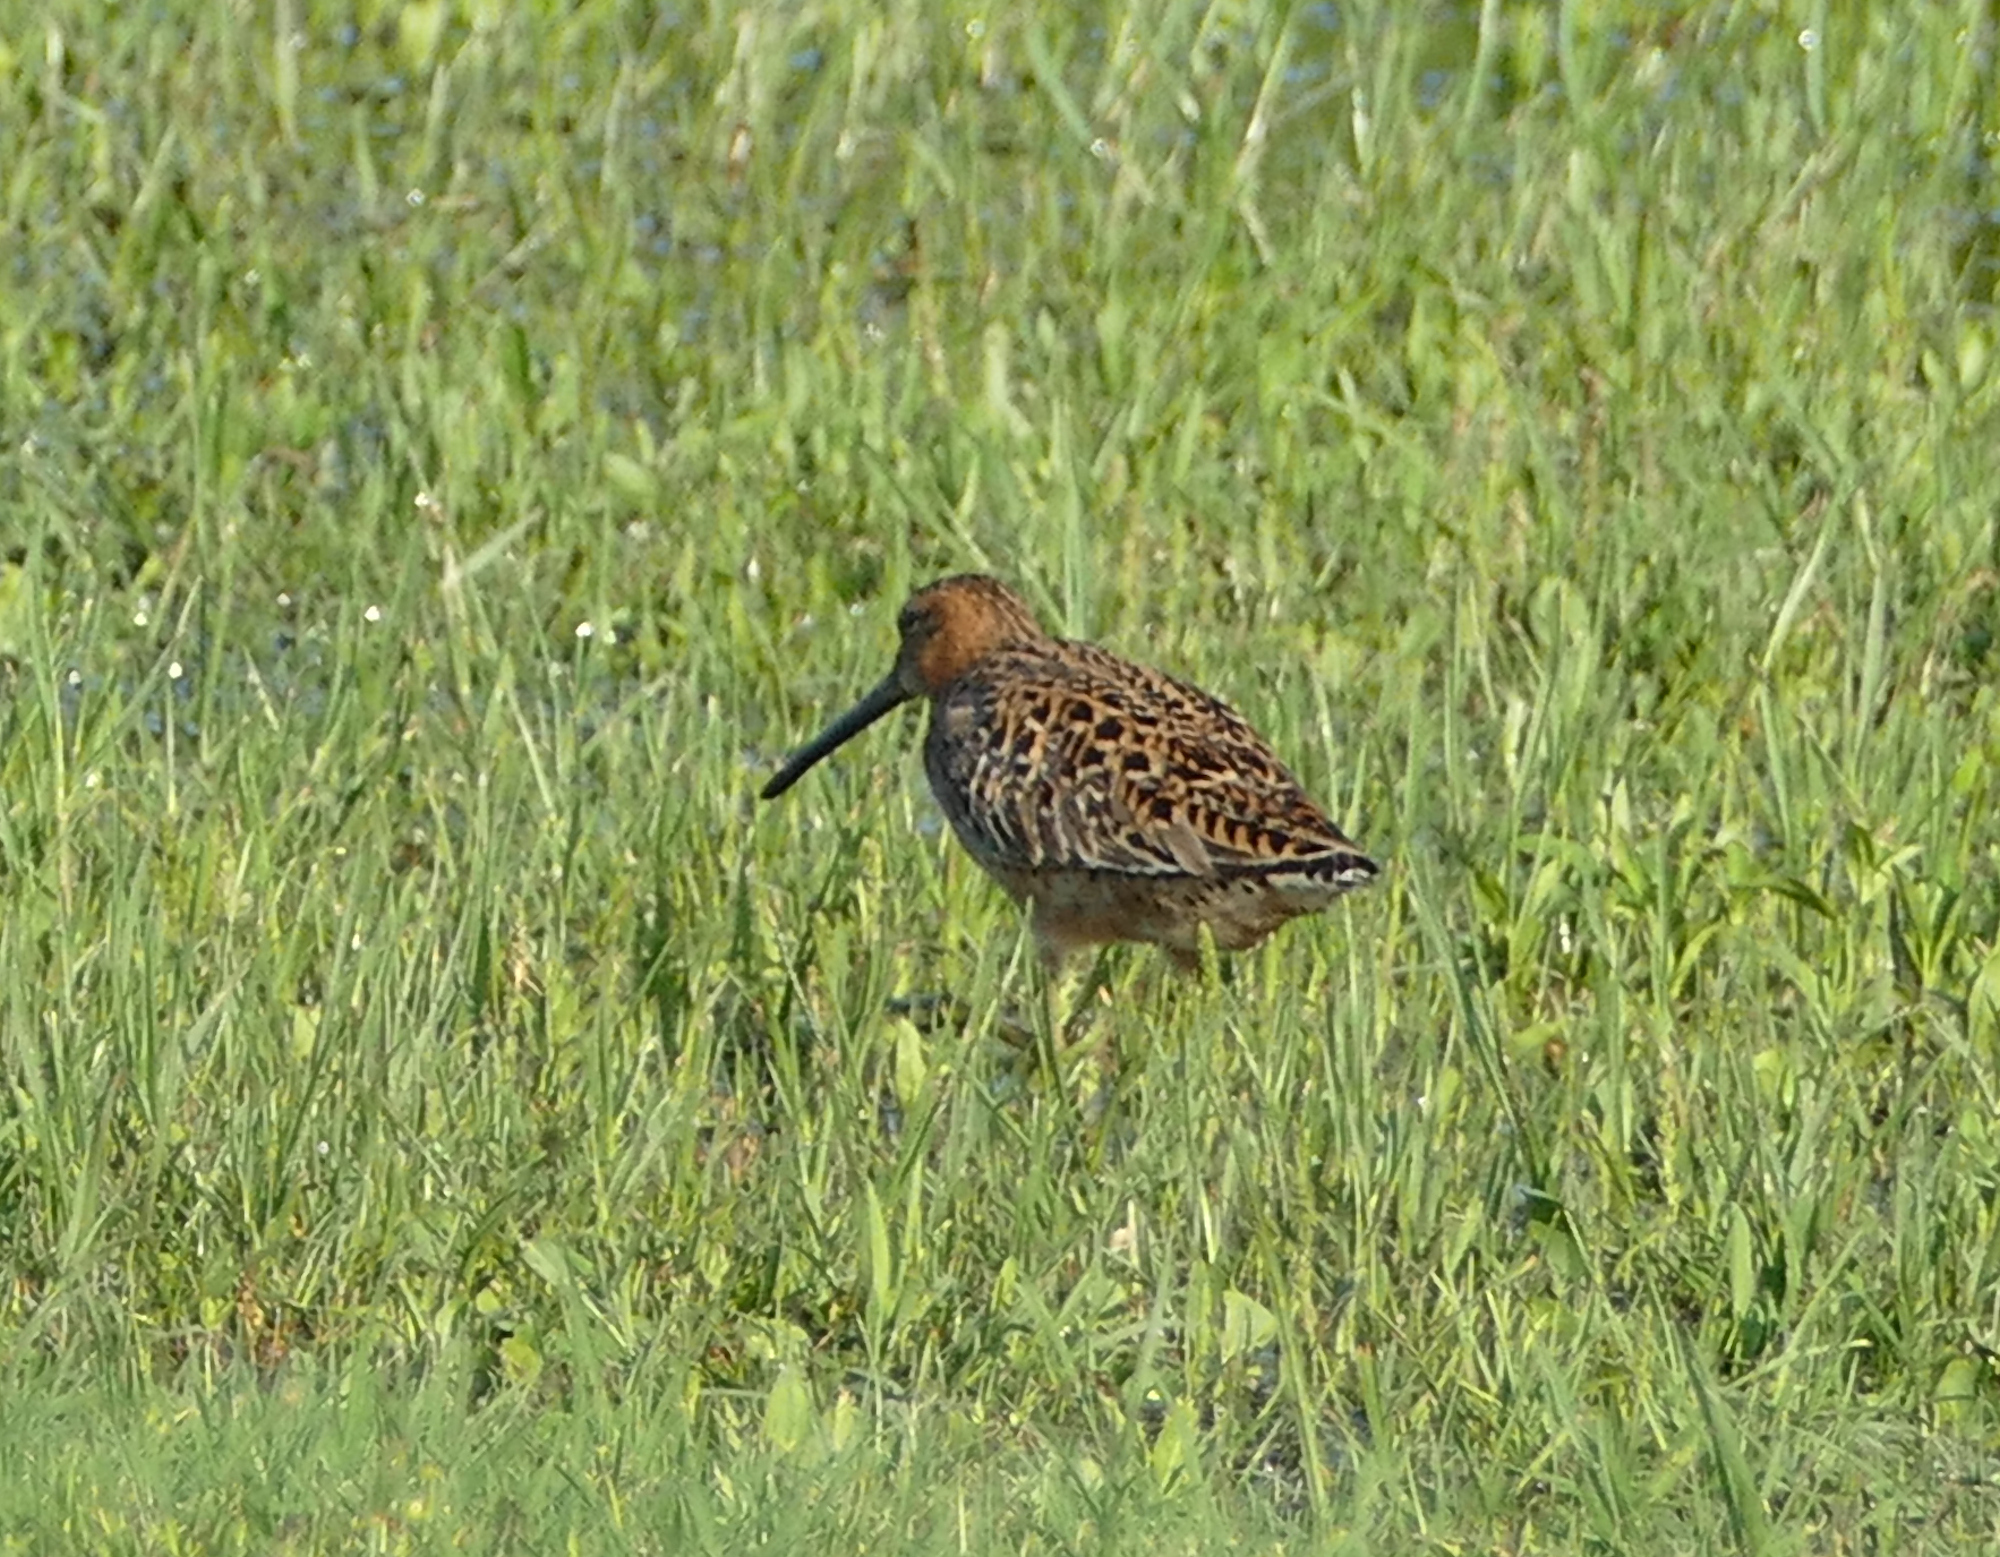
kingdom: Animalia
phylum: Chordata
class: Aves
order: Charadriiformes
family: Scolopacidae
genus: Limnodromus
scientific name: Limnodromus griseus
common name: Short-billed dowitcher
